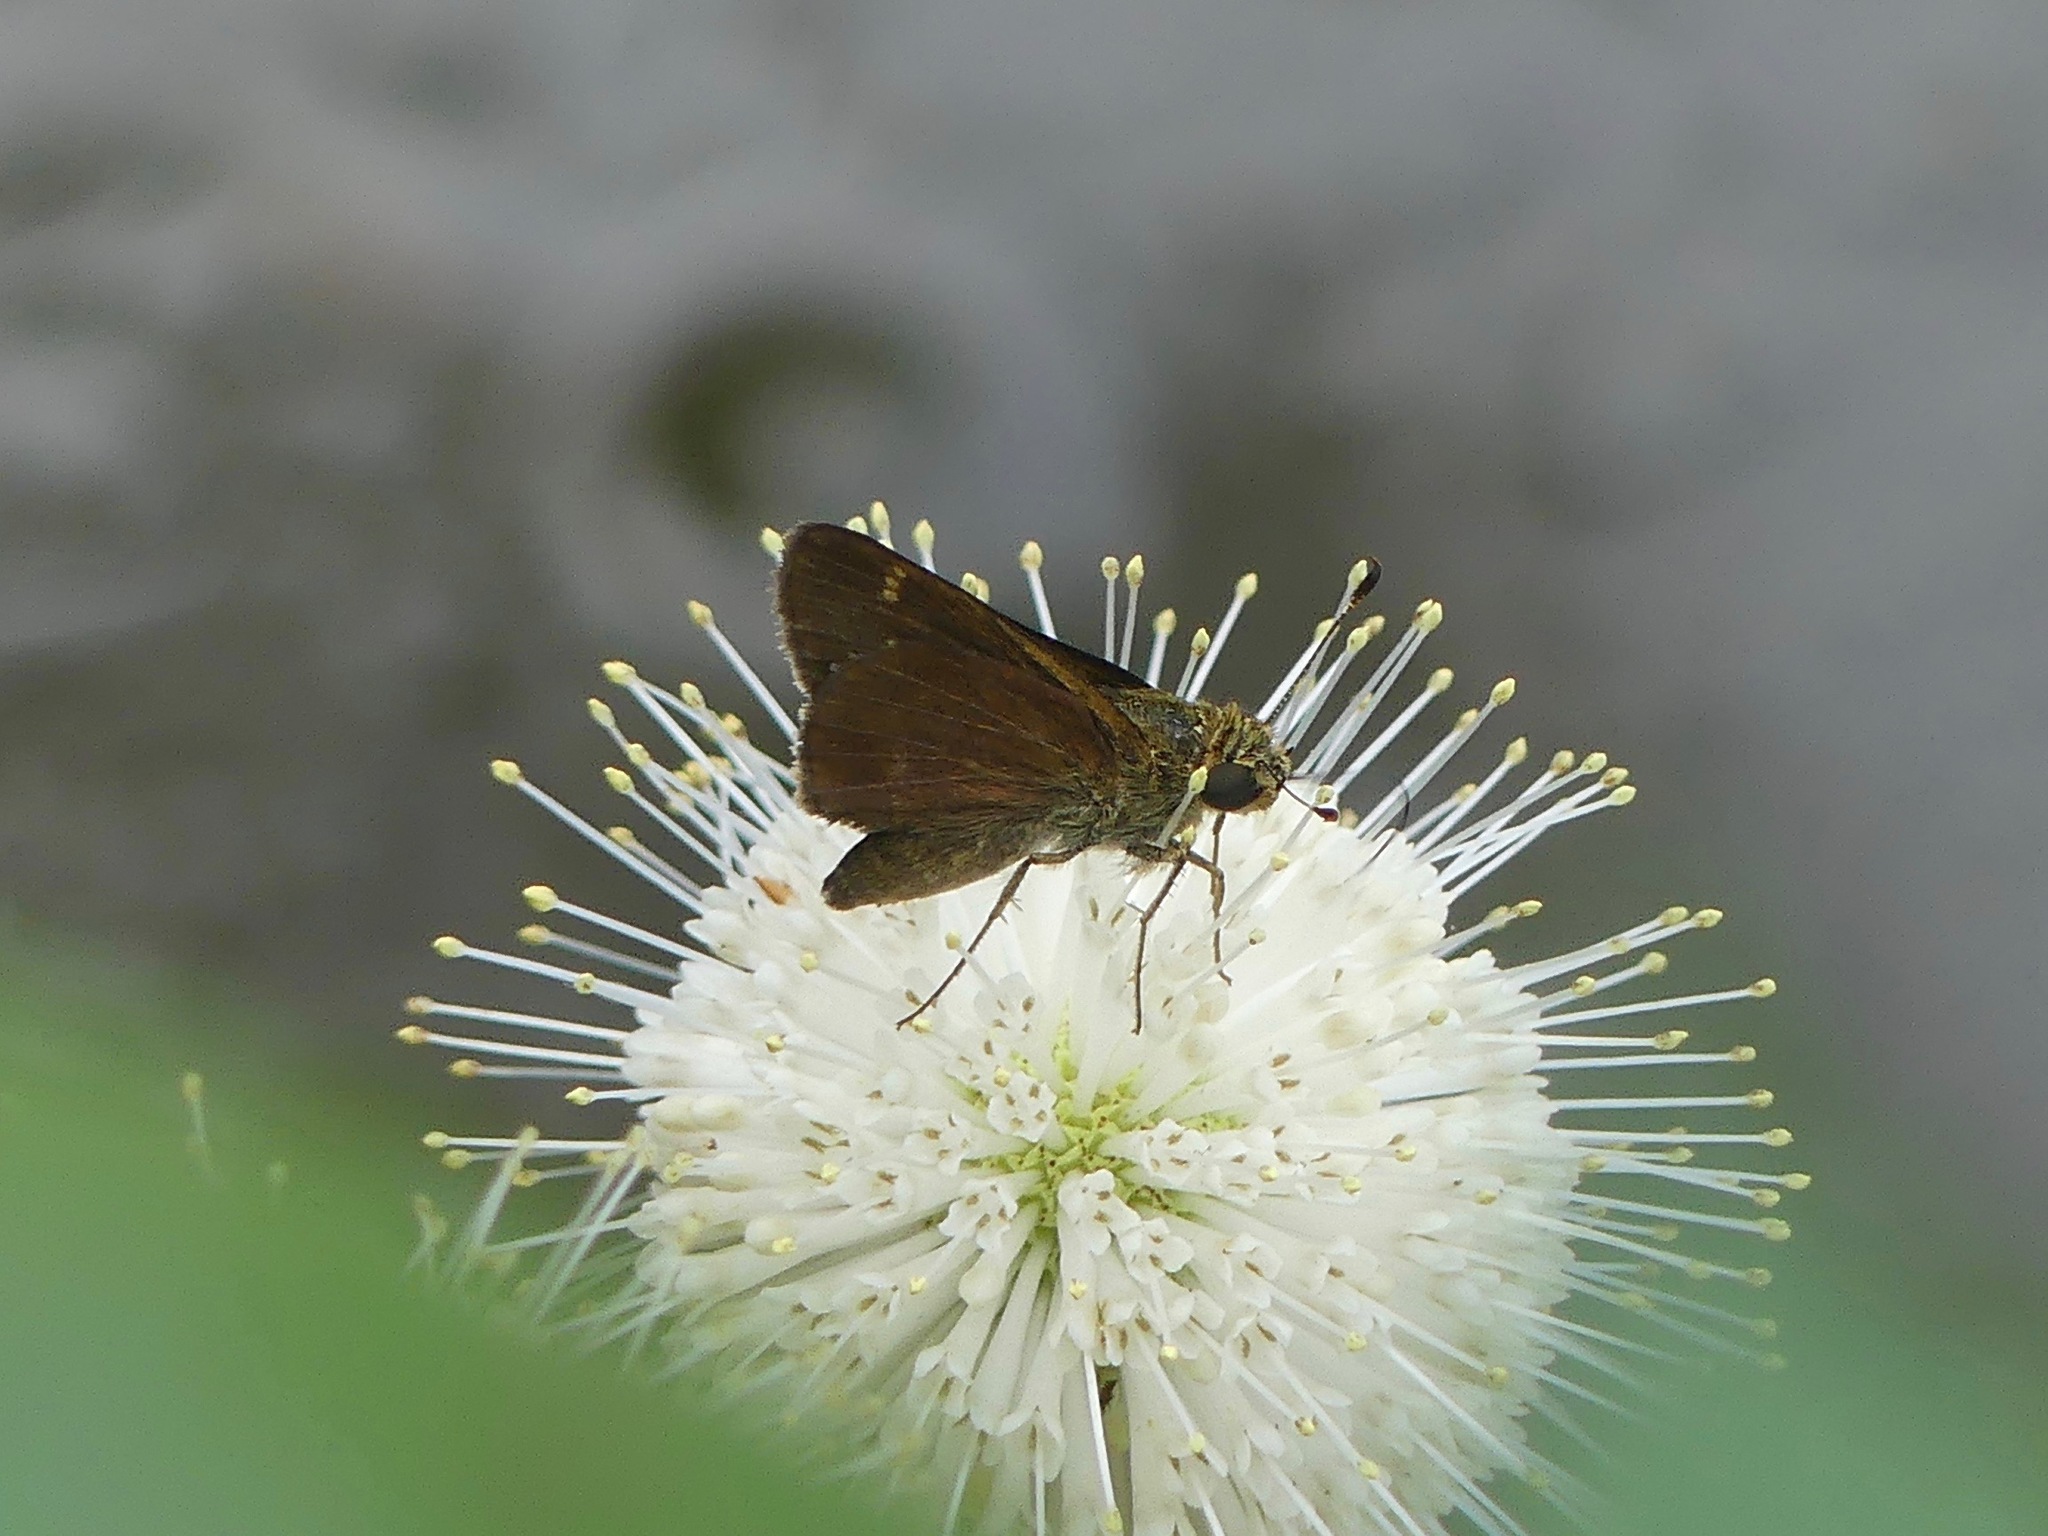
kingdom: Animalia
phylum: Arthropoda
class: Insecta
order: Lepidoptera
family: Hesperiidae
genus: Euphyes
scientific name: Euphyes vestris
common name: Dun skipper
